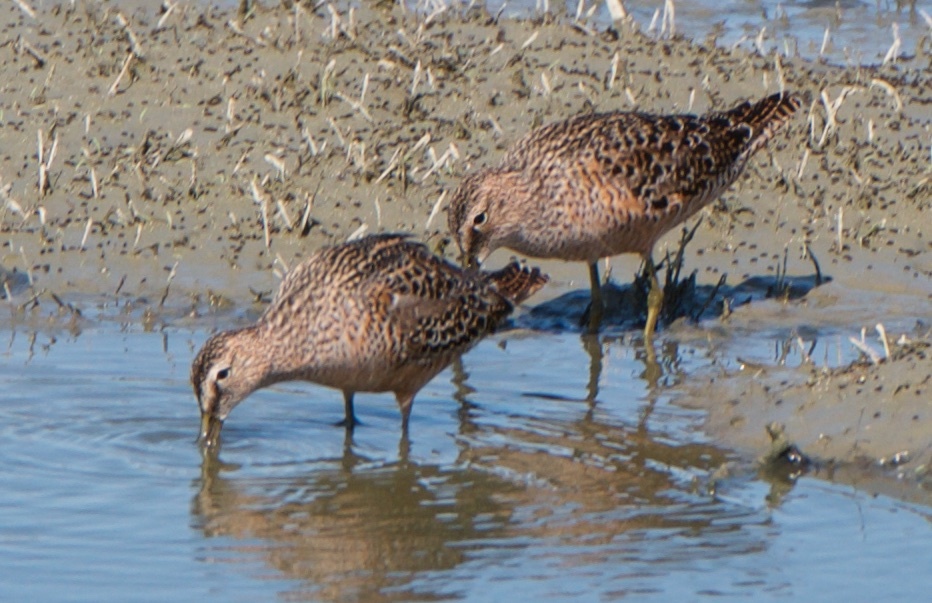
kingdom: Animalia
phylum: Chordata
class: Aves
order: Charadriiformes
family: Scolopacidae
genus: Limnodromus
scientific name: Limnodromus scolopaceus
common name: Long-billed dowitcher
